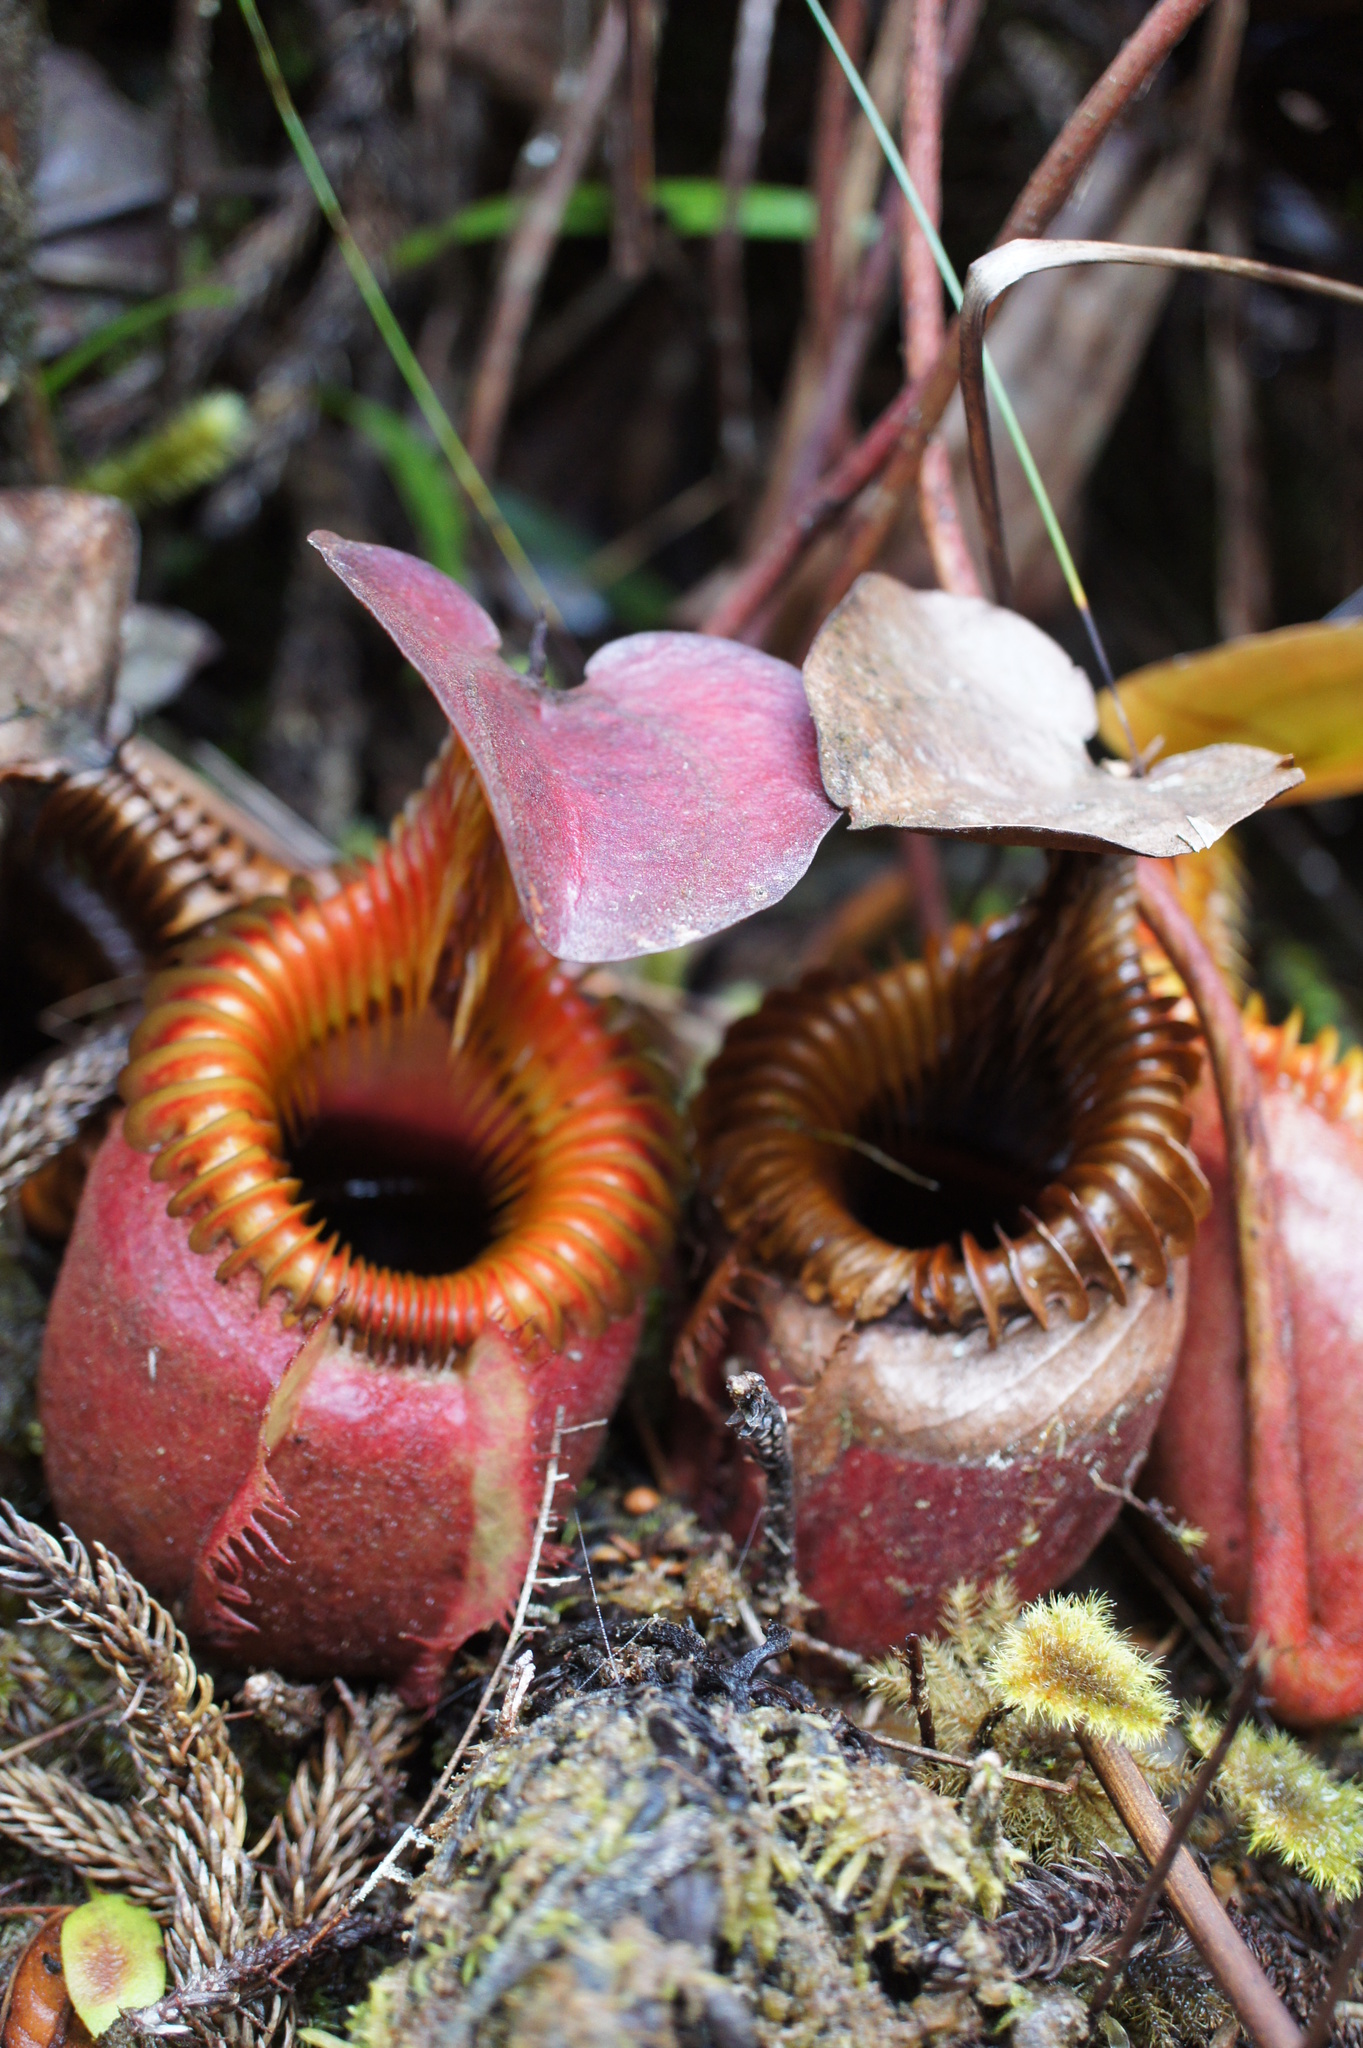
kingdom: Plantae
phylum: Tracheophyta
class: Magnoliopsida
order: Caryophyllales
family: Nepenthaceae
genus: Nepenthes
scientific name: Nepenthes villosa
